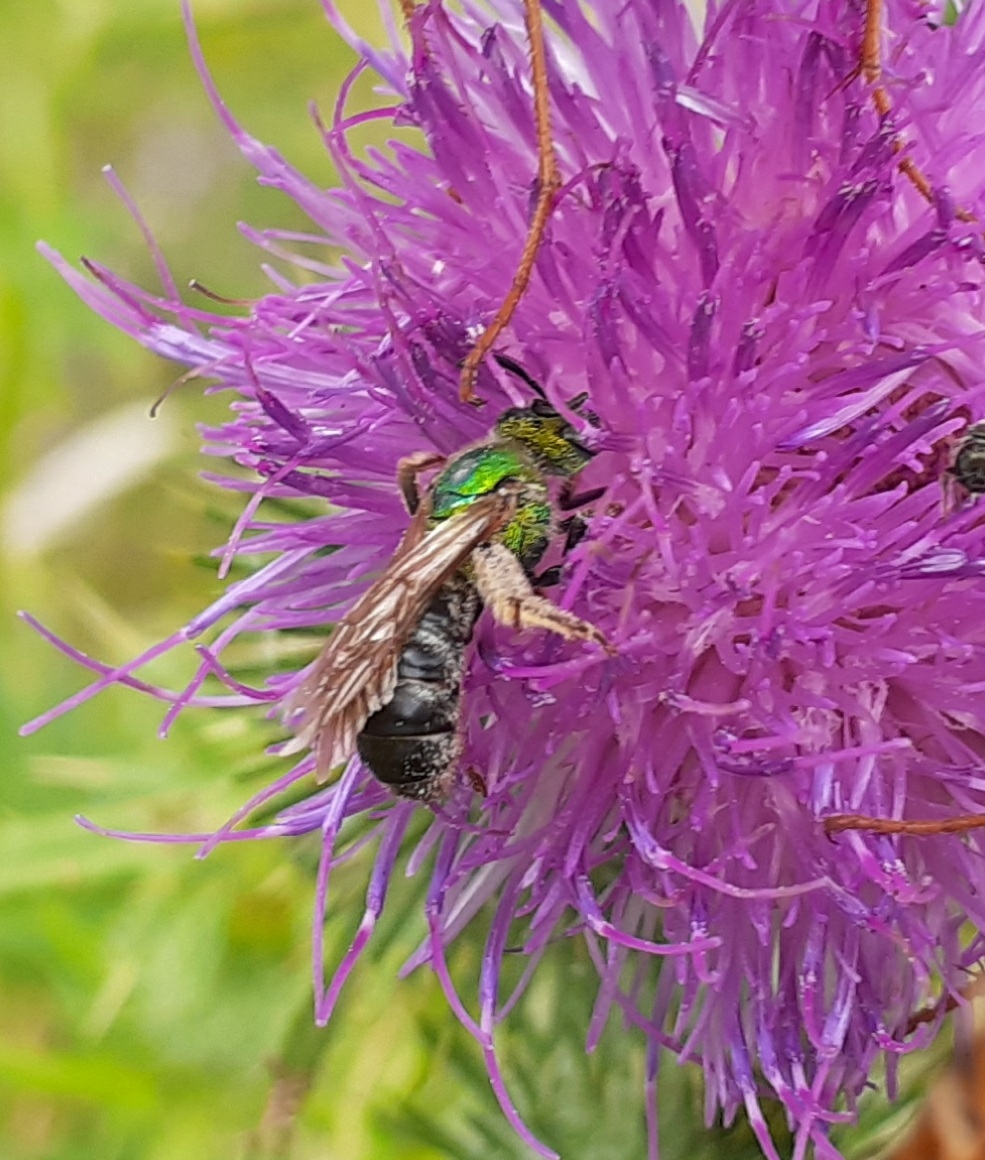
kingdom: Animalia
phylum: Arthropoda
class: Insecta
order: Hymenoptera
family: Halictidae
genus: Agapostemon
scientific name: Agapostemon virescens
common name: Bicolored striped sweat bee
